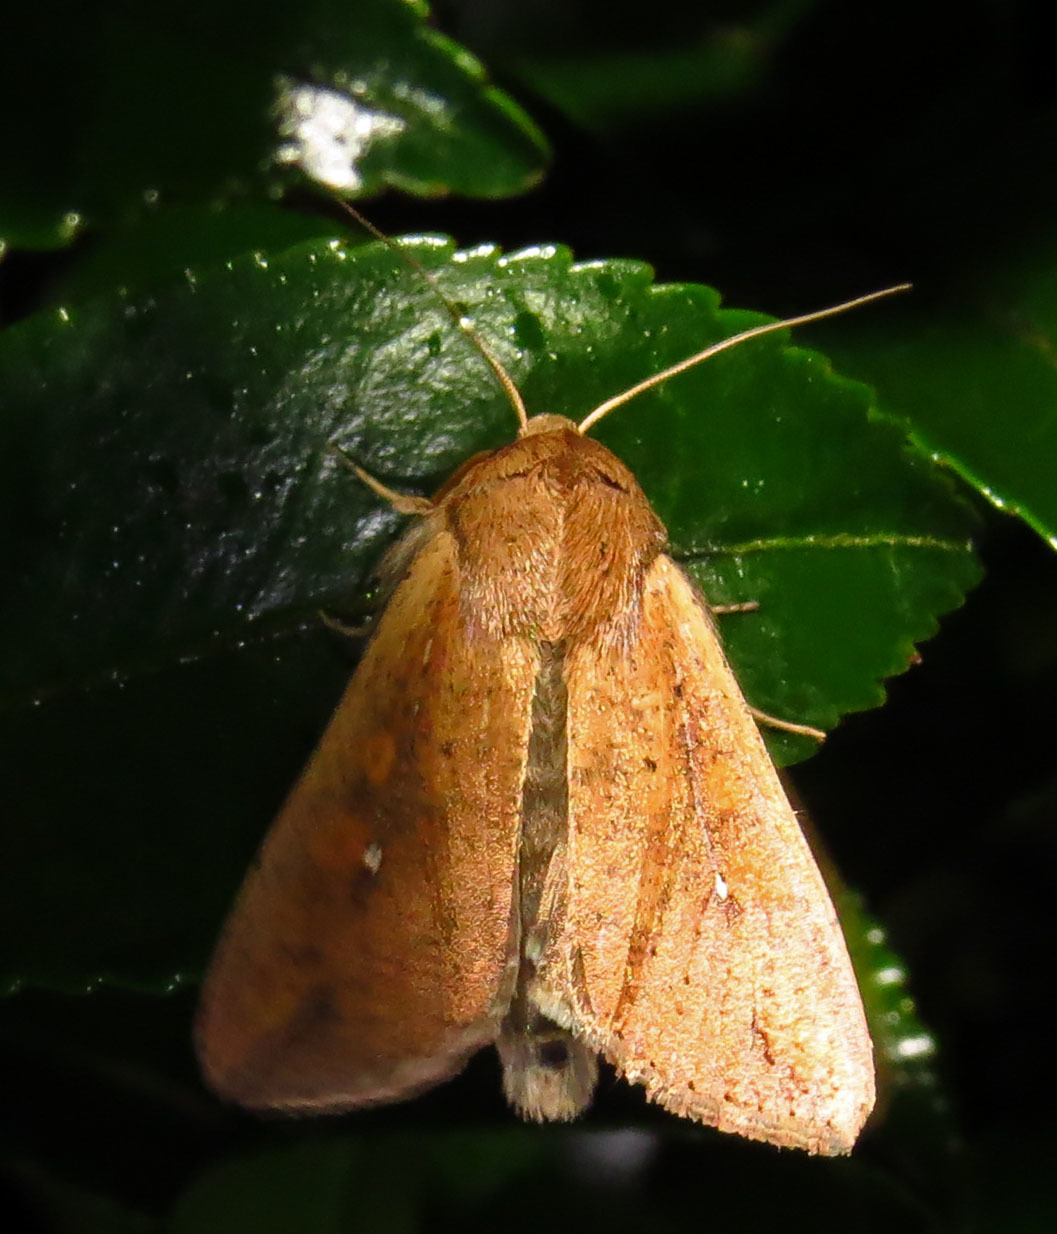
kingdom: Animalia
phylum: Arthropoda
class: Insecta
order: Lepidoptera
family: Noctuidae
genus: Mythimna
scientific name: Mythimna unipuncta
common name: White-speck
